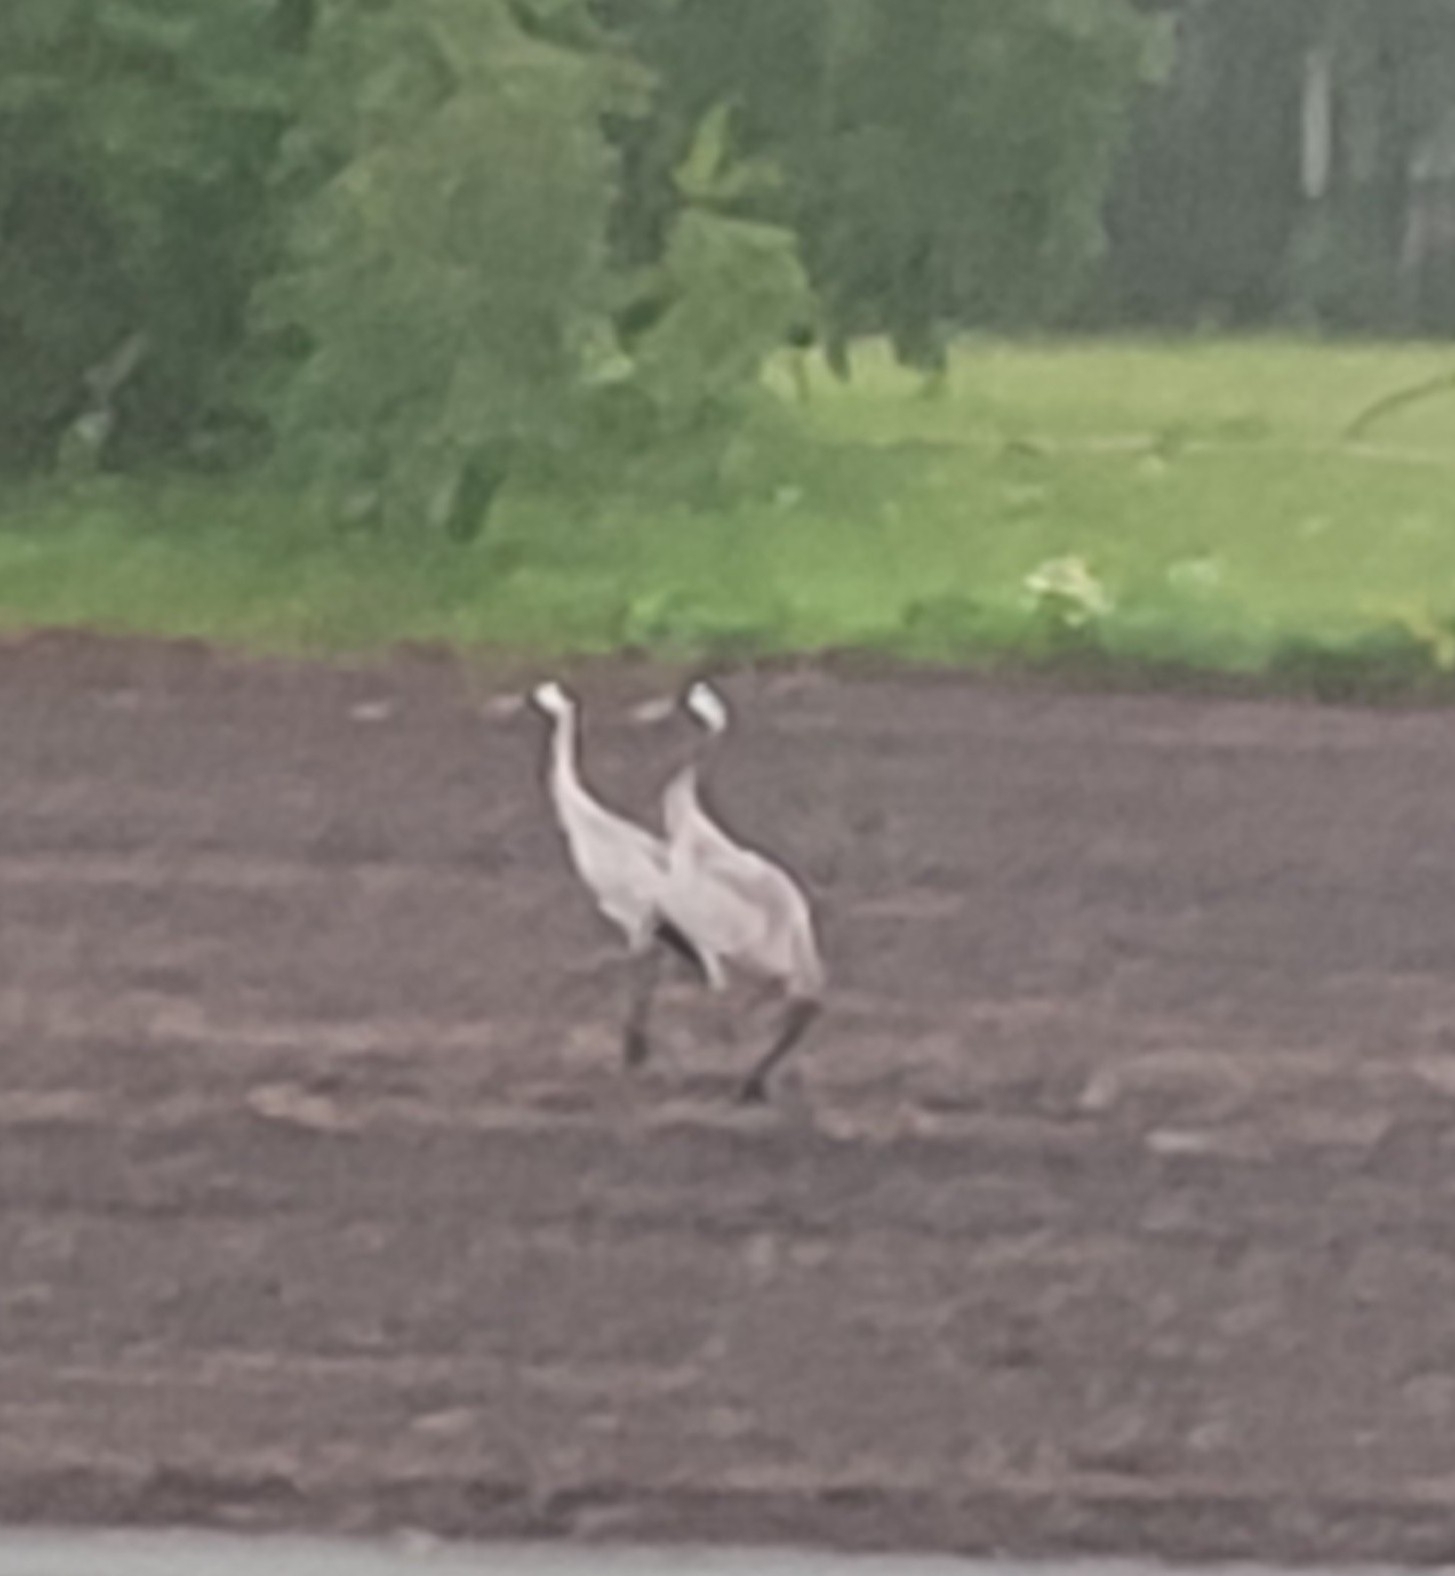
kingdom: Animalia
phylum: Chordata
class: Aves
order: Gruiformes
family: Gruidae
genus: Grus
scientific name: Grus grus
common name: Common crane
